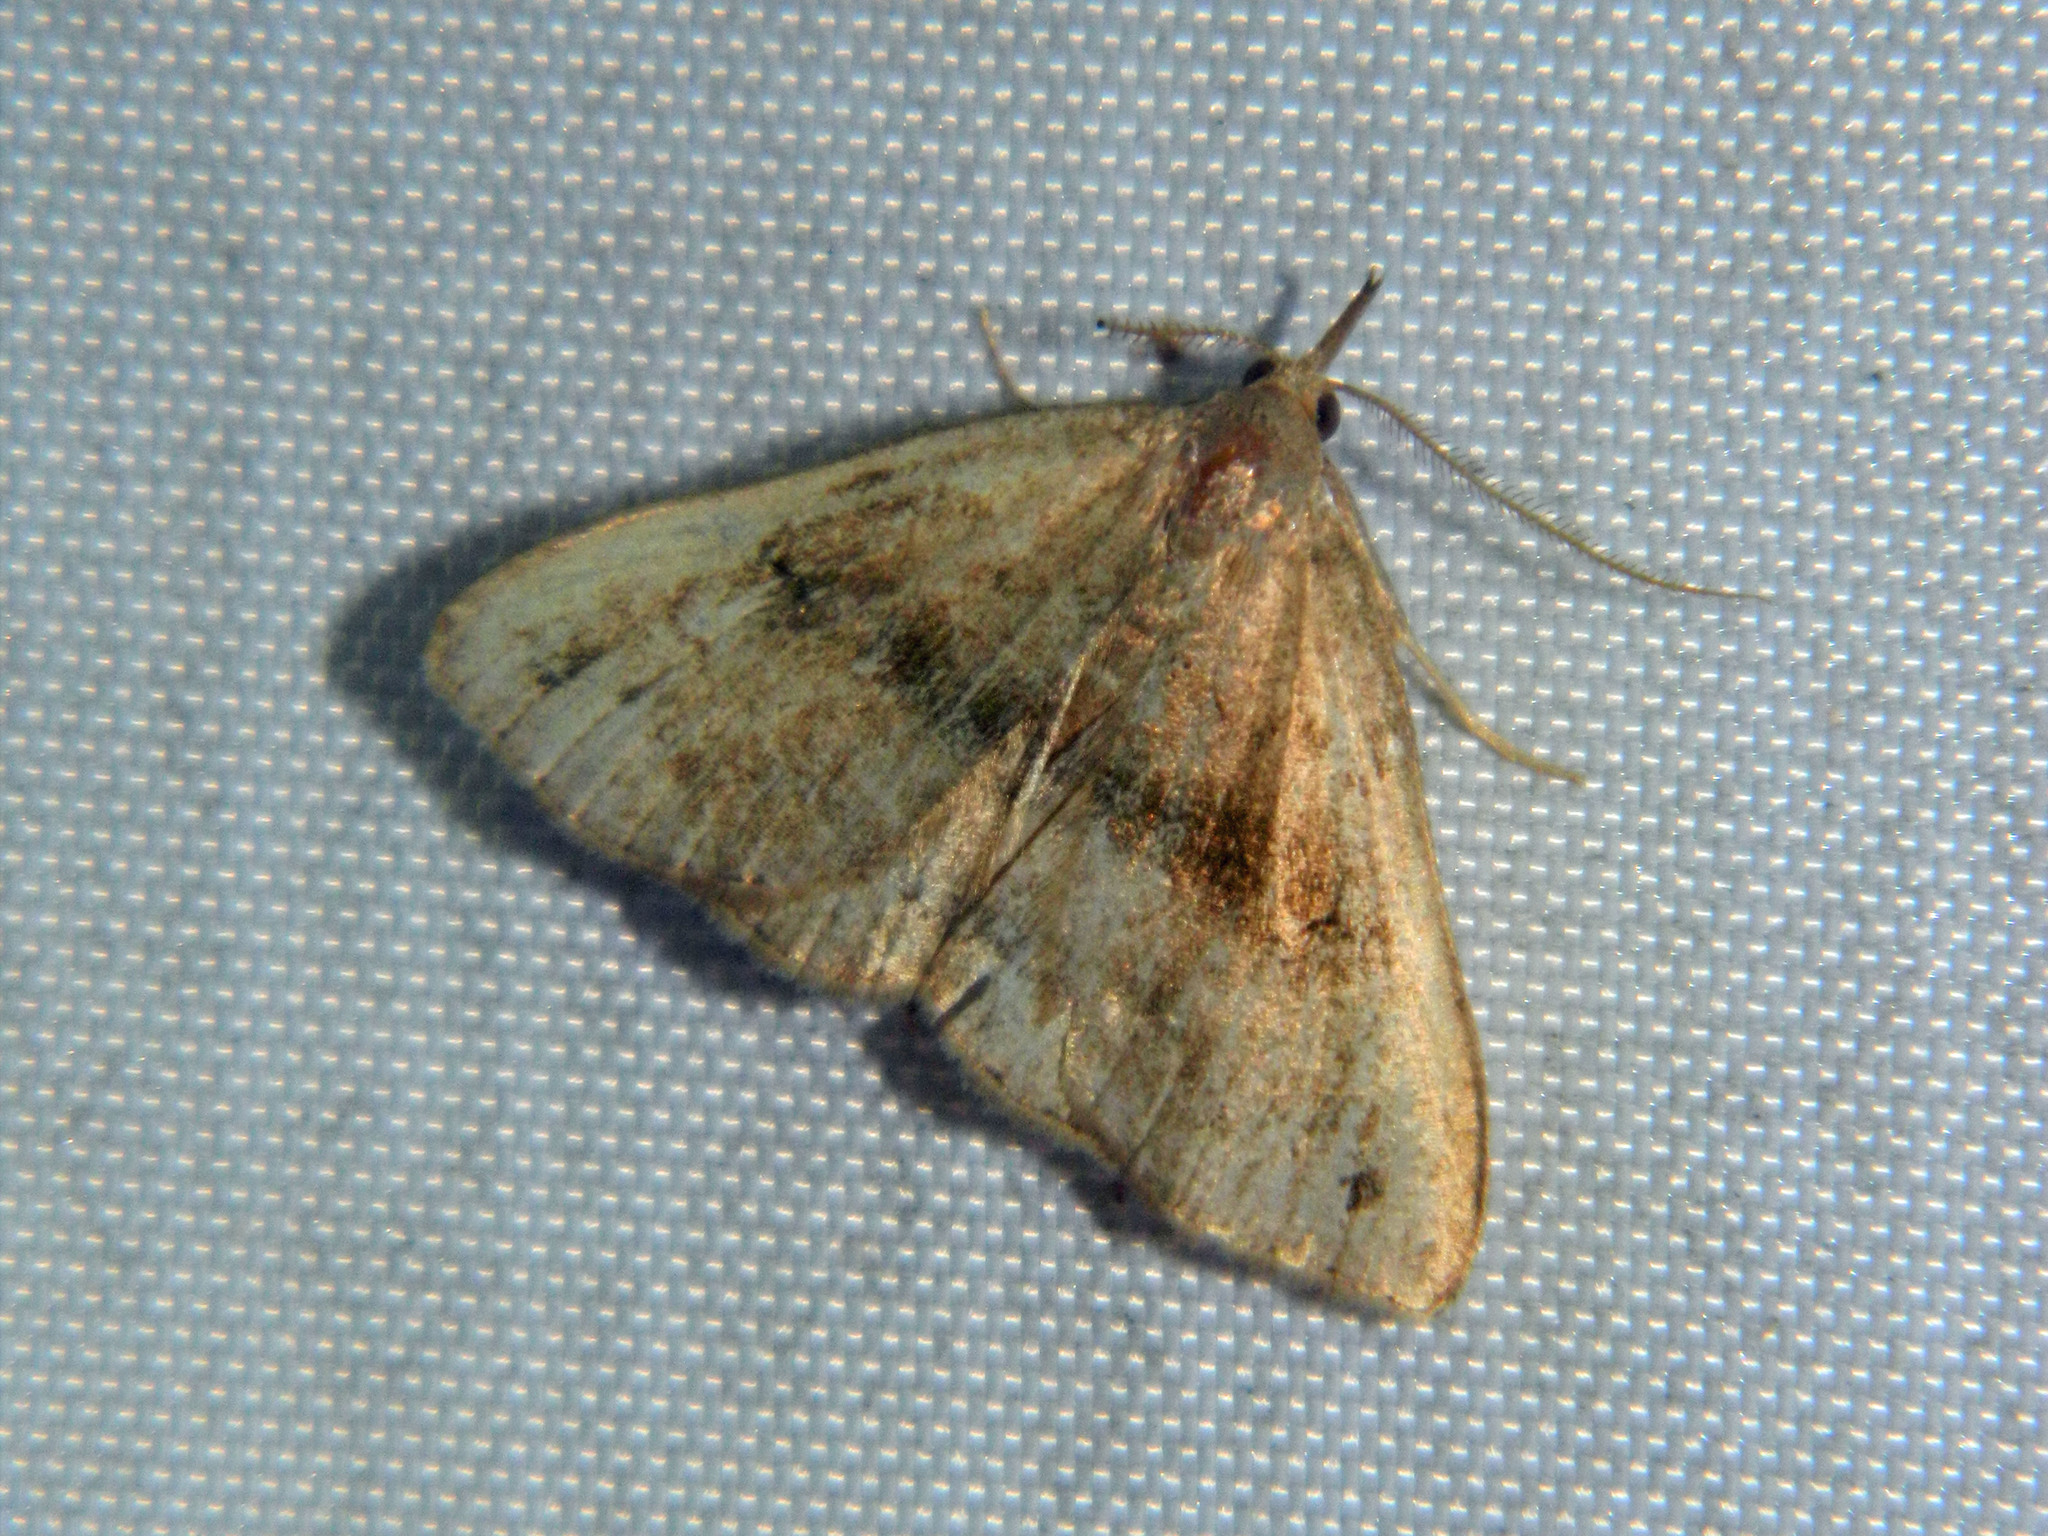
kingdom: Animalia
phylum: Arthropoda
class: Insecta
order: Lepidoptera
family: Erebidae
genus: Phalaenostola
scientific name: Phalaenostola eumelusalis
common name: Dark phalaenostola moth
